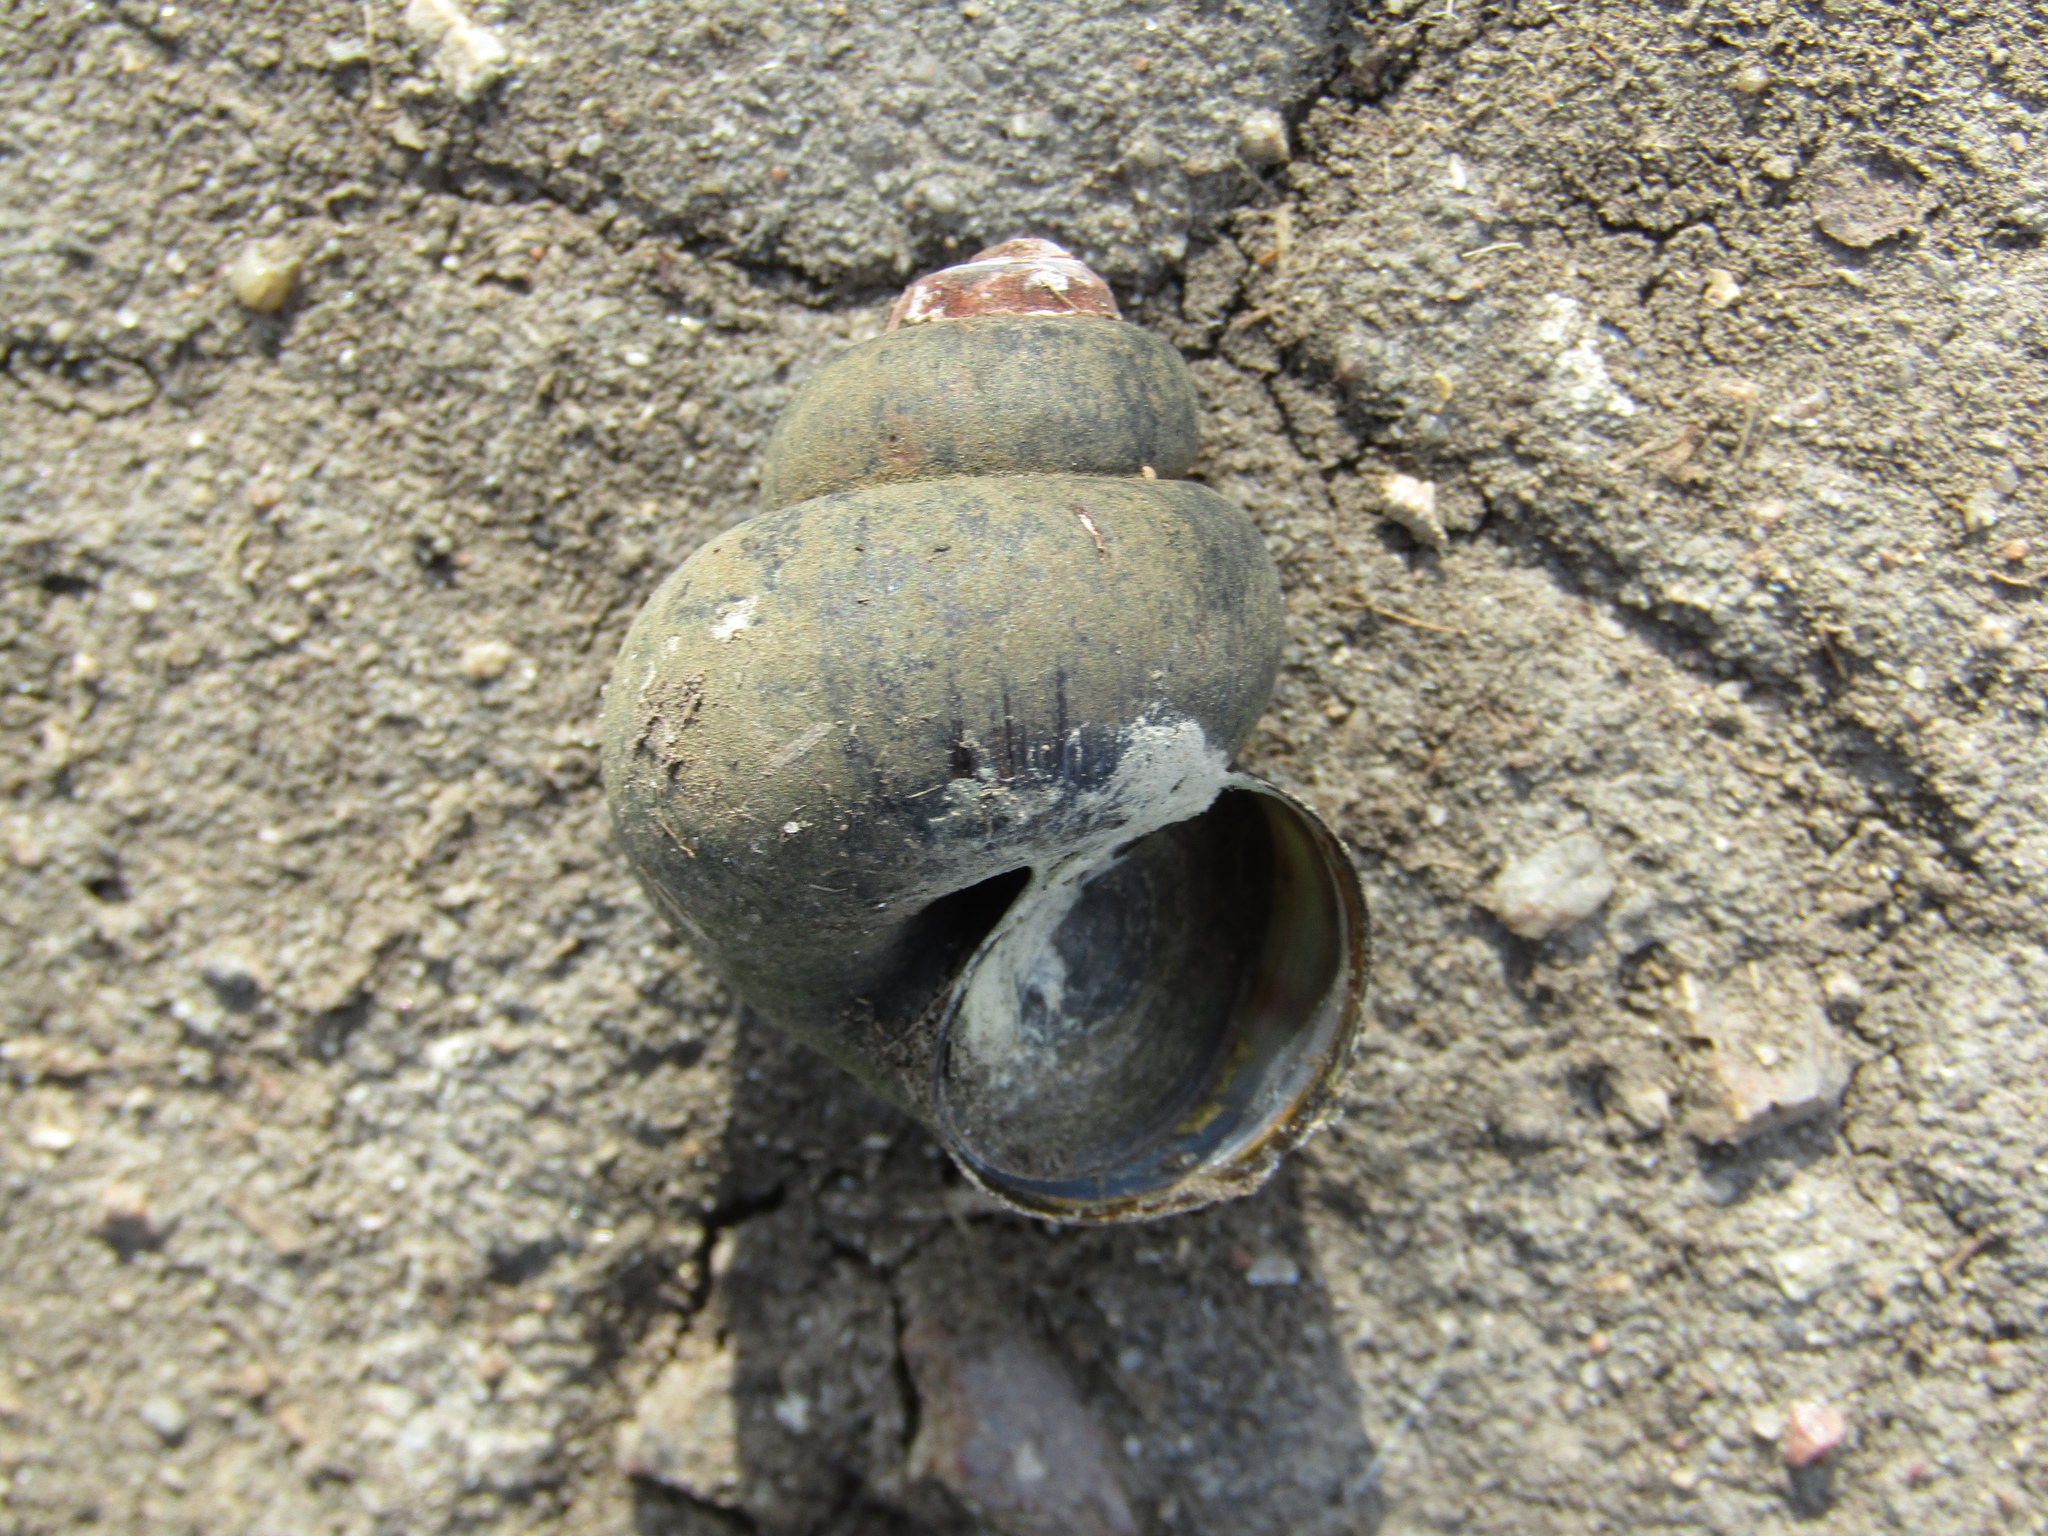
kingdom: Animalia
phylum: Mollusca
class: Gastropoda
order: Architaenioglossa
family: Viviparidae
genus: Viviparus
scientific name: Viviparus contectus
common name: Lister's river snail
